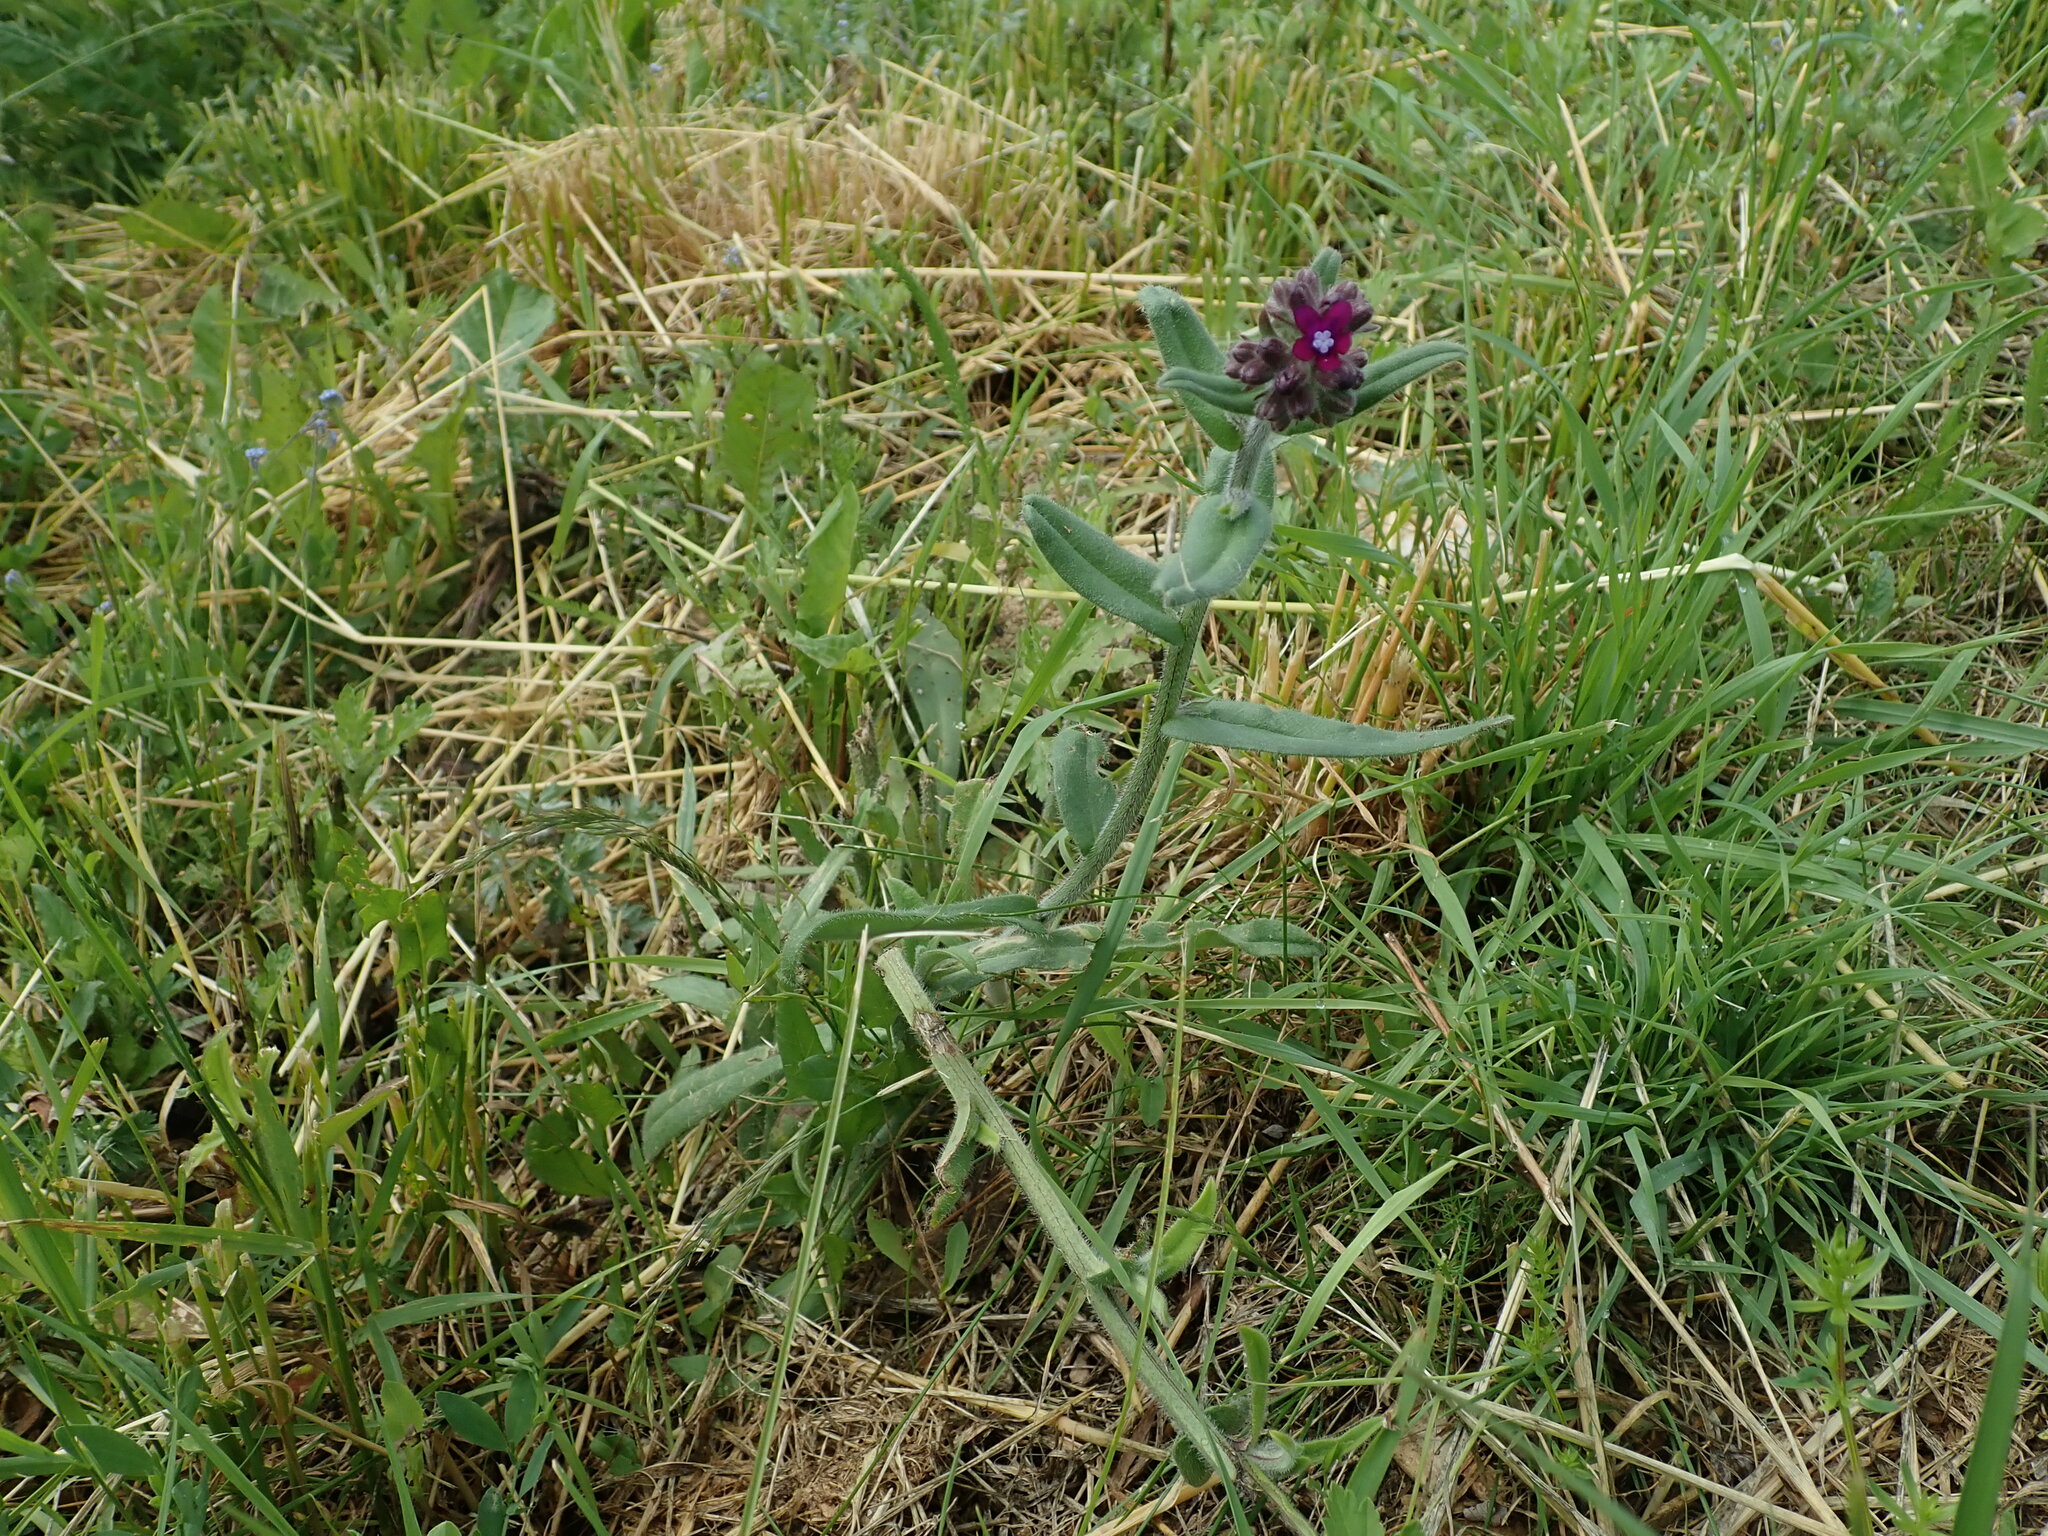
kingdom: Plantae
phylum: Tracheophyta
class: Magnoliopsida
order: Boraginales
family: Boraginaceae
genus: Anchusa
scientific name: Anchusa officinalis
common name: Alkanet
